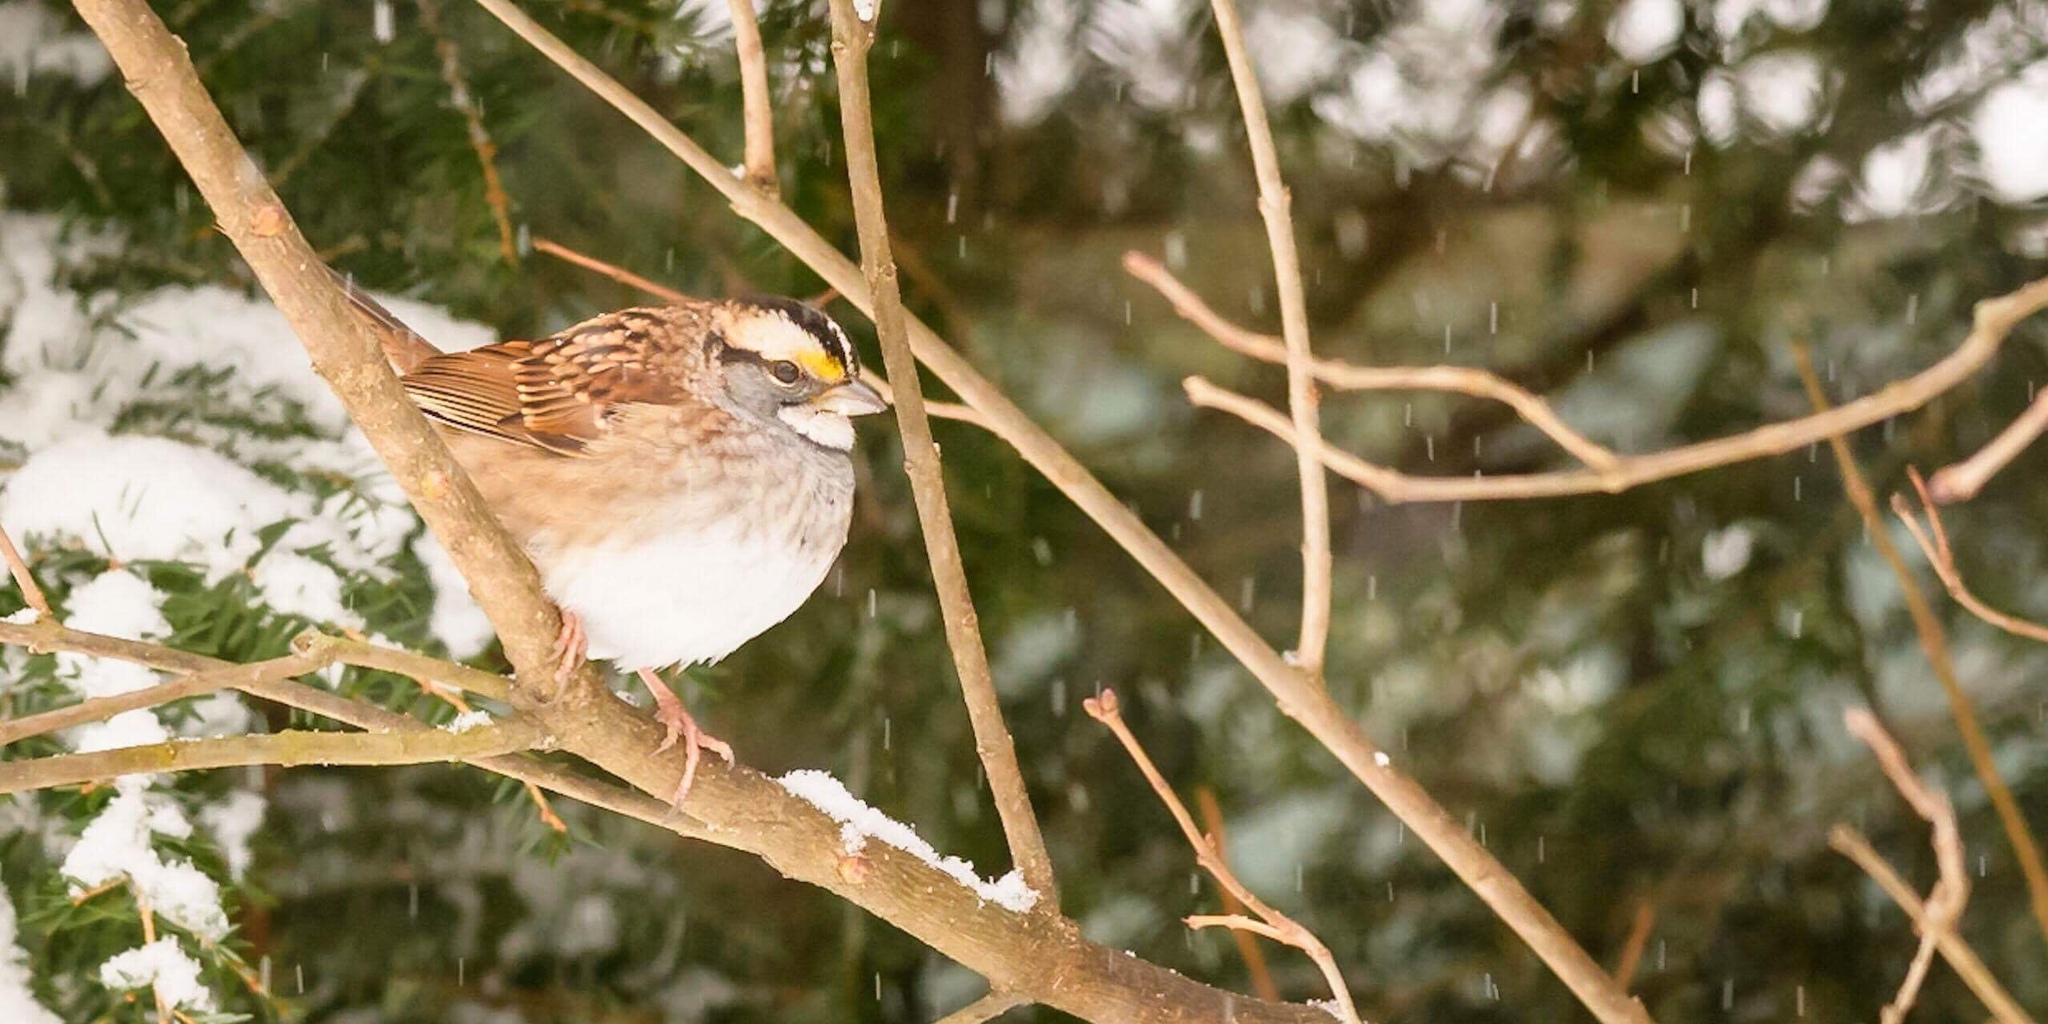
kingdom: Animalia
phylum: Chordata
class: Aves
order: Passeriformes
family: Passerellidae
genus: Zonotrichia
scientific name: Zonotrichia albicollis
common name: White-throated sparrow
